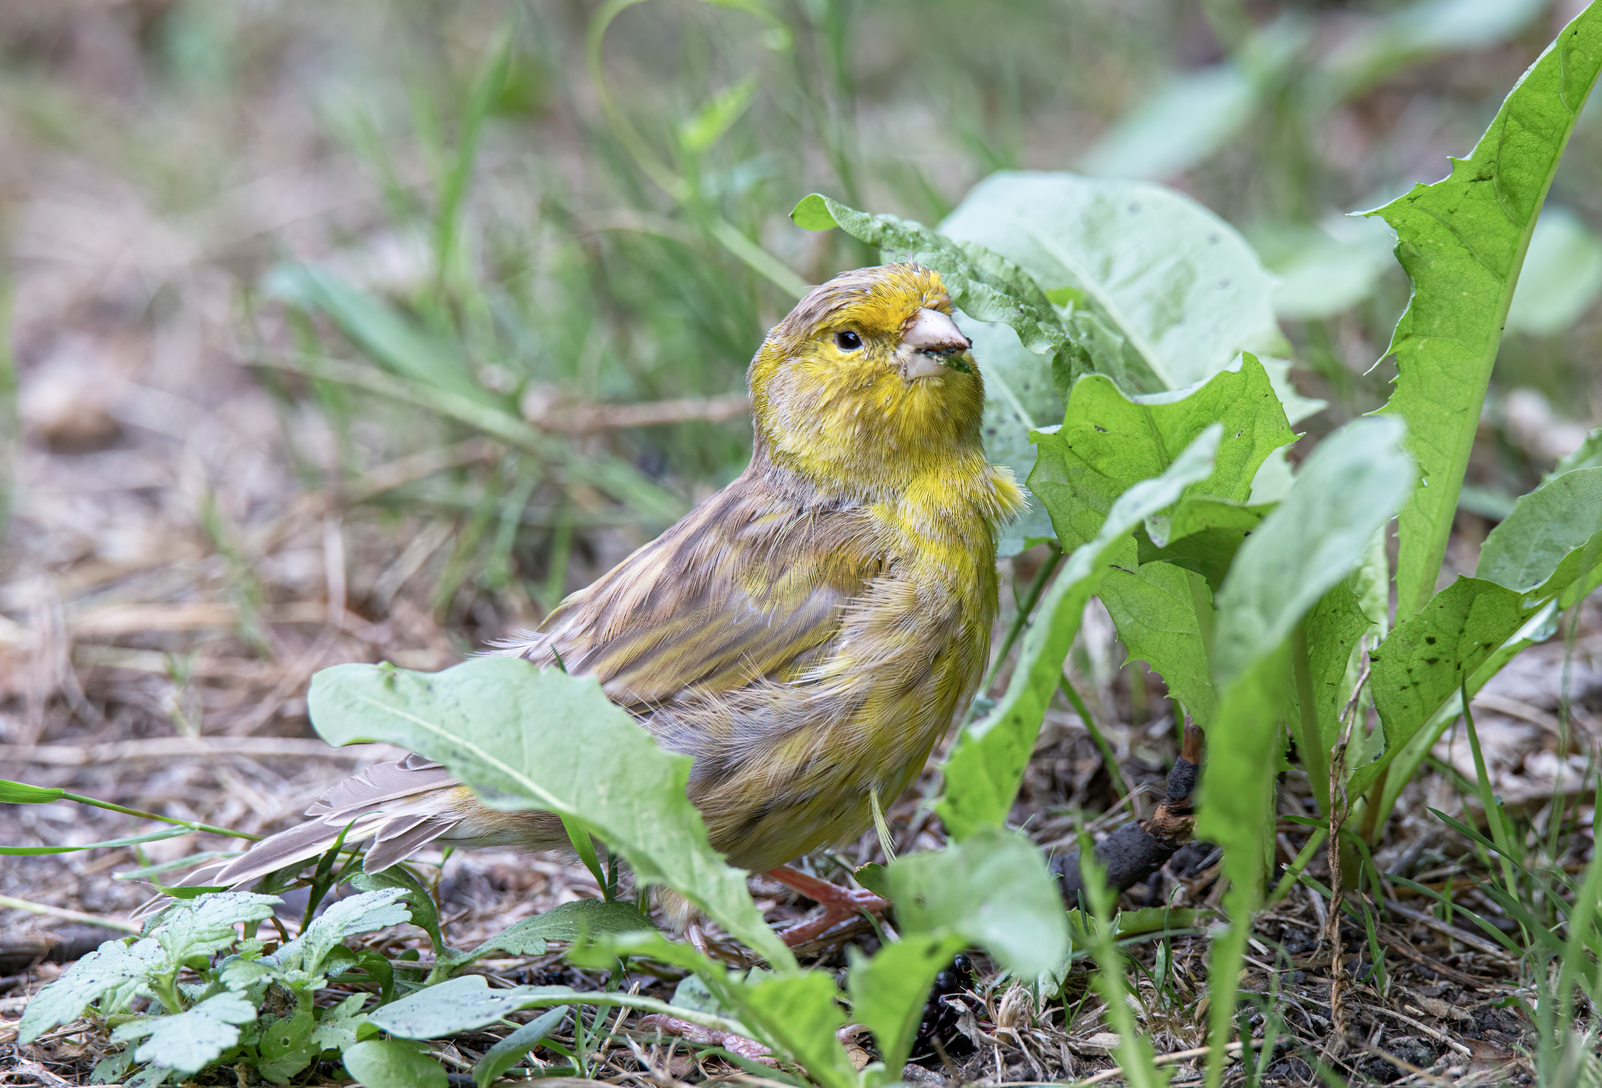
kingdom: Animalia
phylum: Chordata
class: Aves
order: Passeriformes
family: Fringillidae
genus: Serinus
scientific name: Serinus canaria
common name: Atlantic canary
